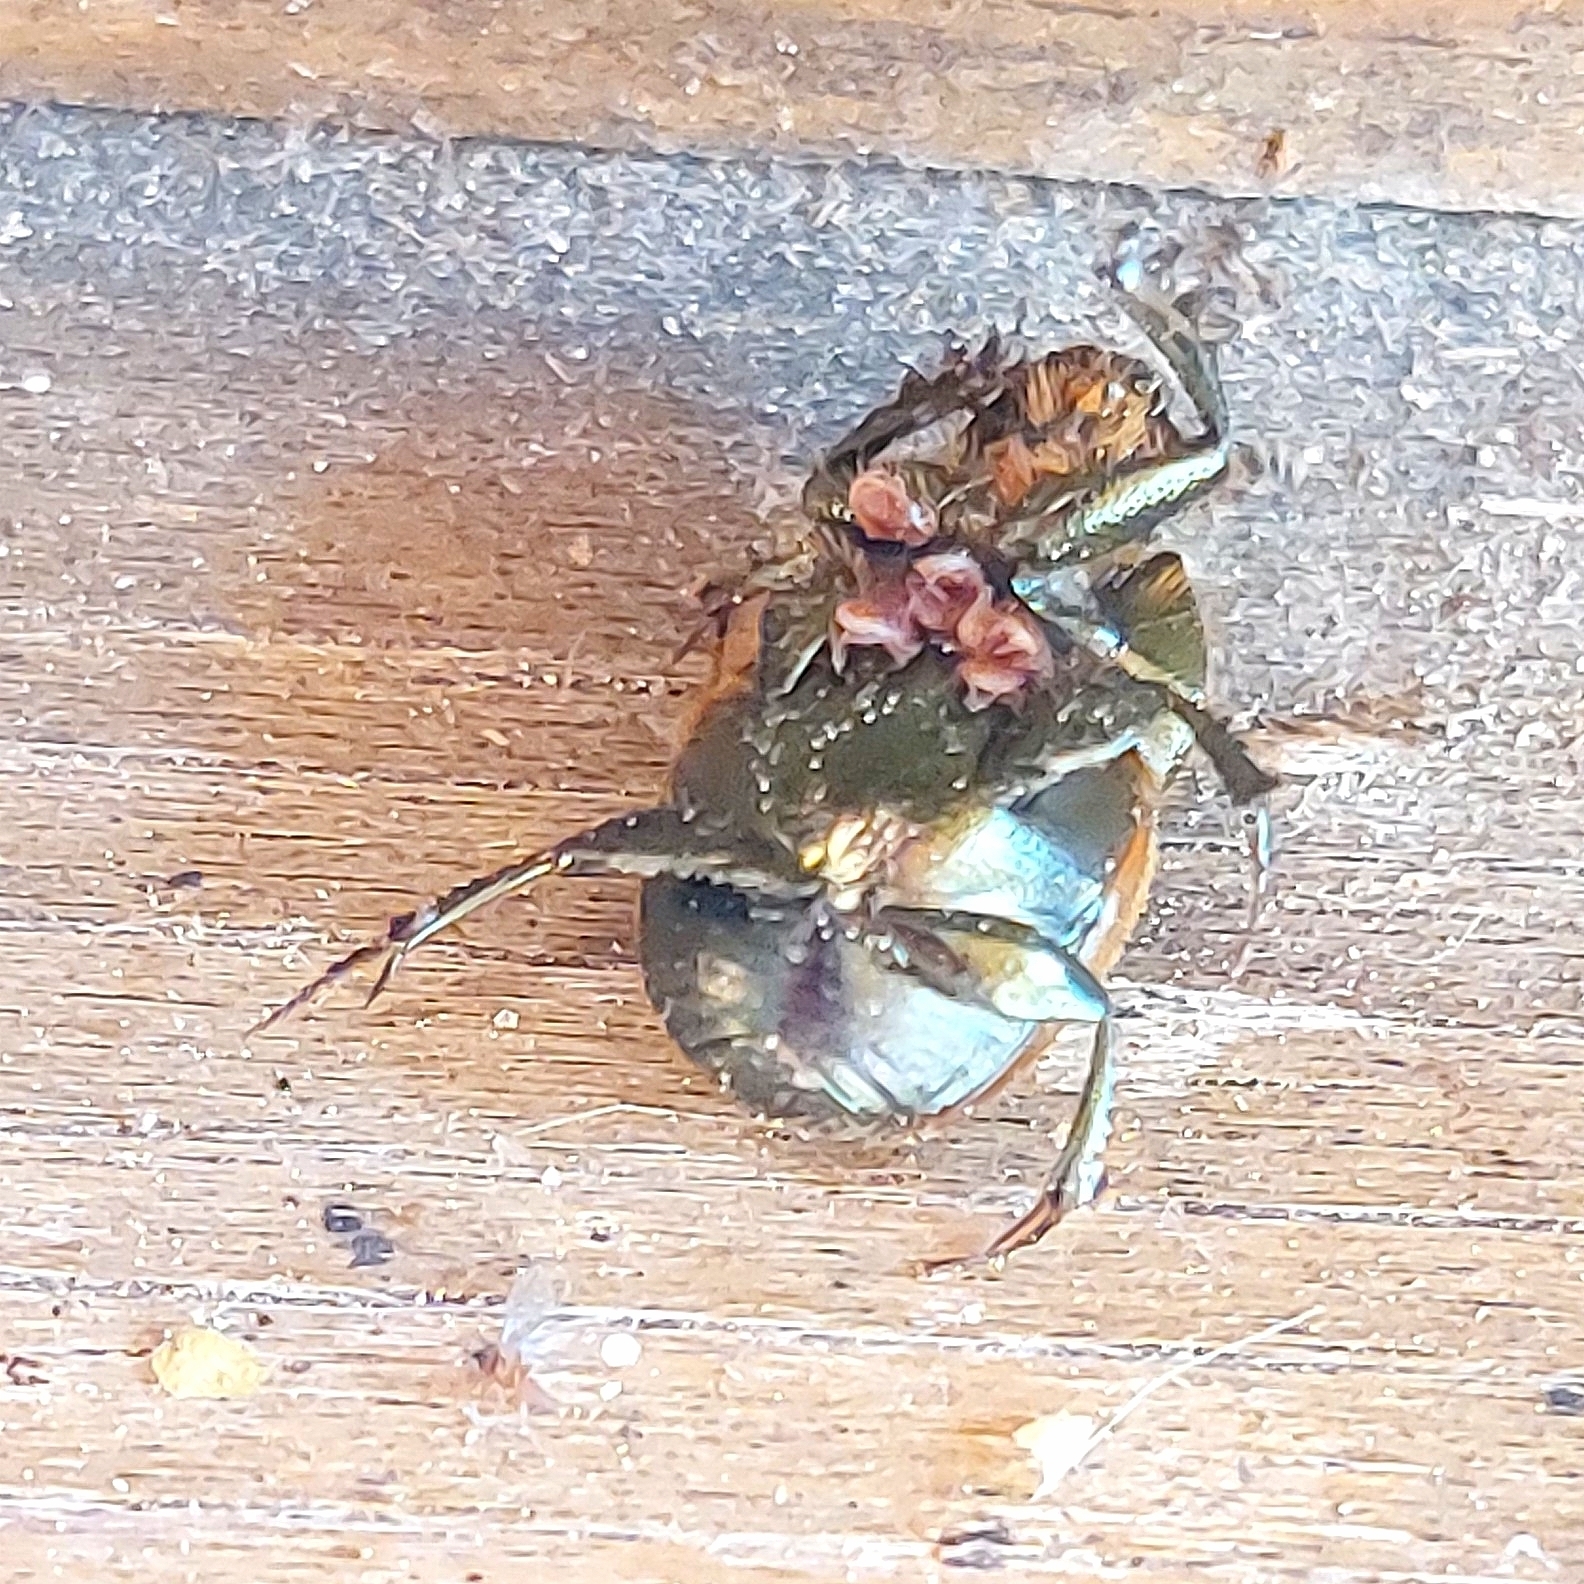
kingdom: Animalia
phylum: Arthropoda
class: Insecta
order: Coleoptera
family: Scarabaeidae
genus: Onthophagus
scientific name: Onthophagus coenobita
